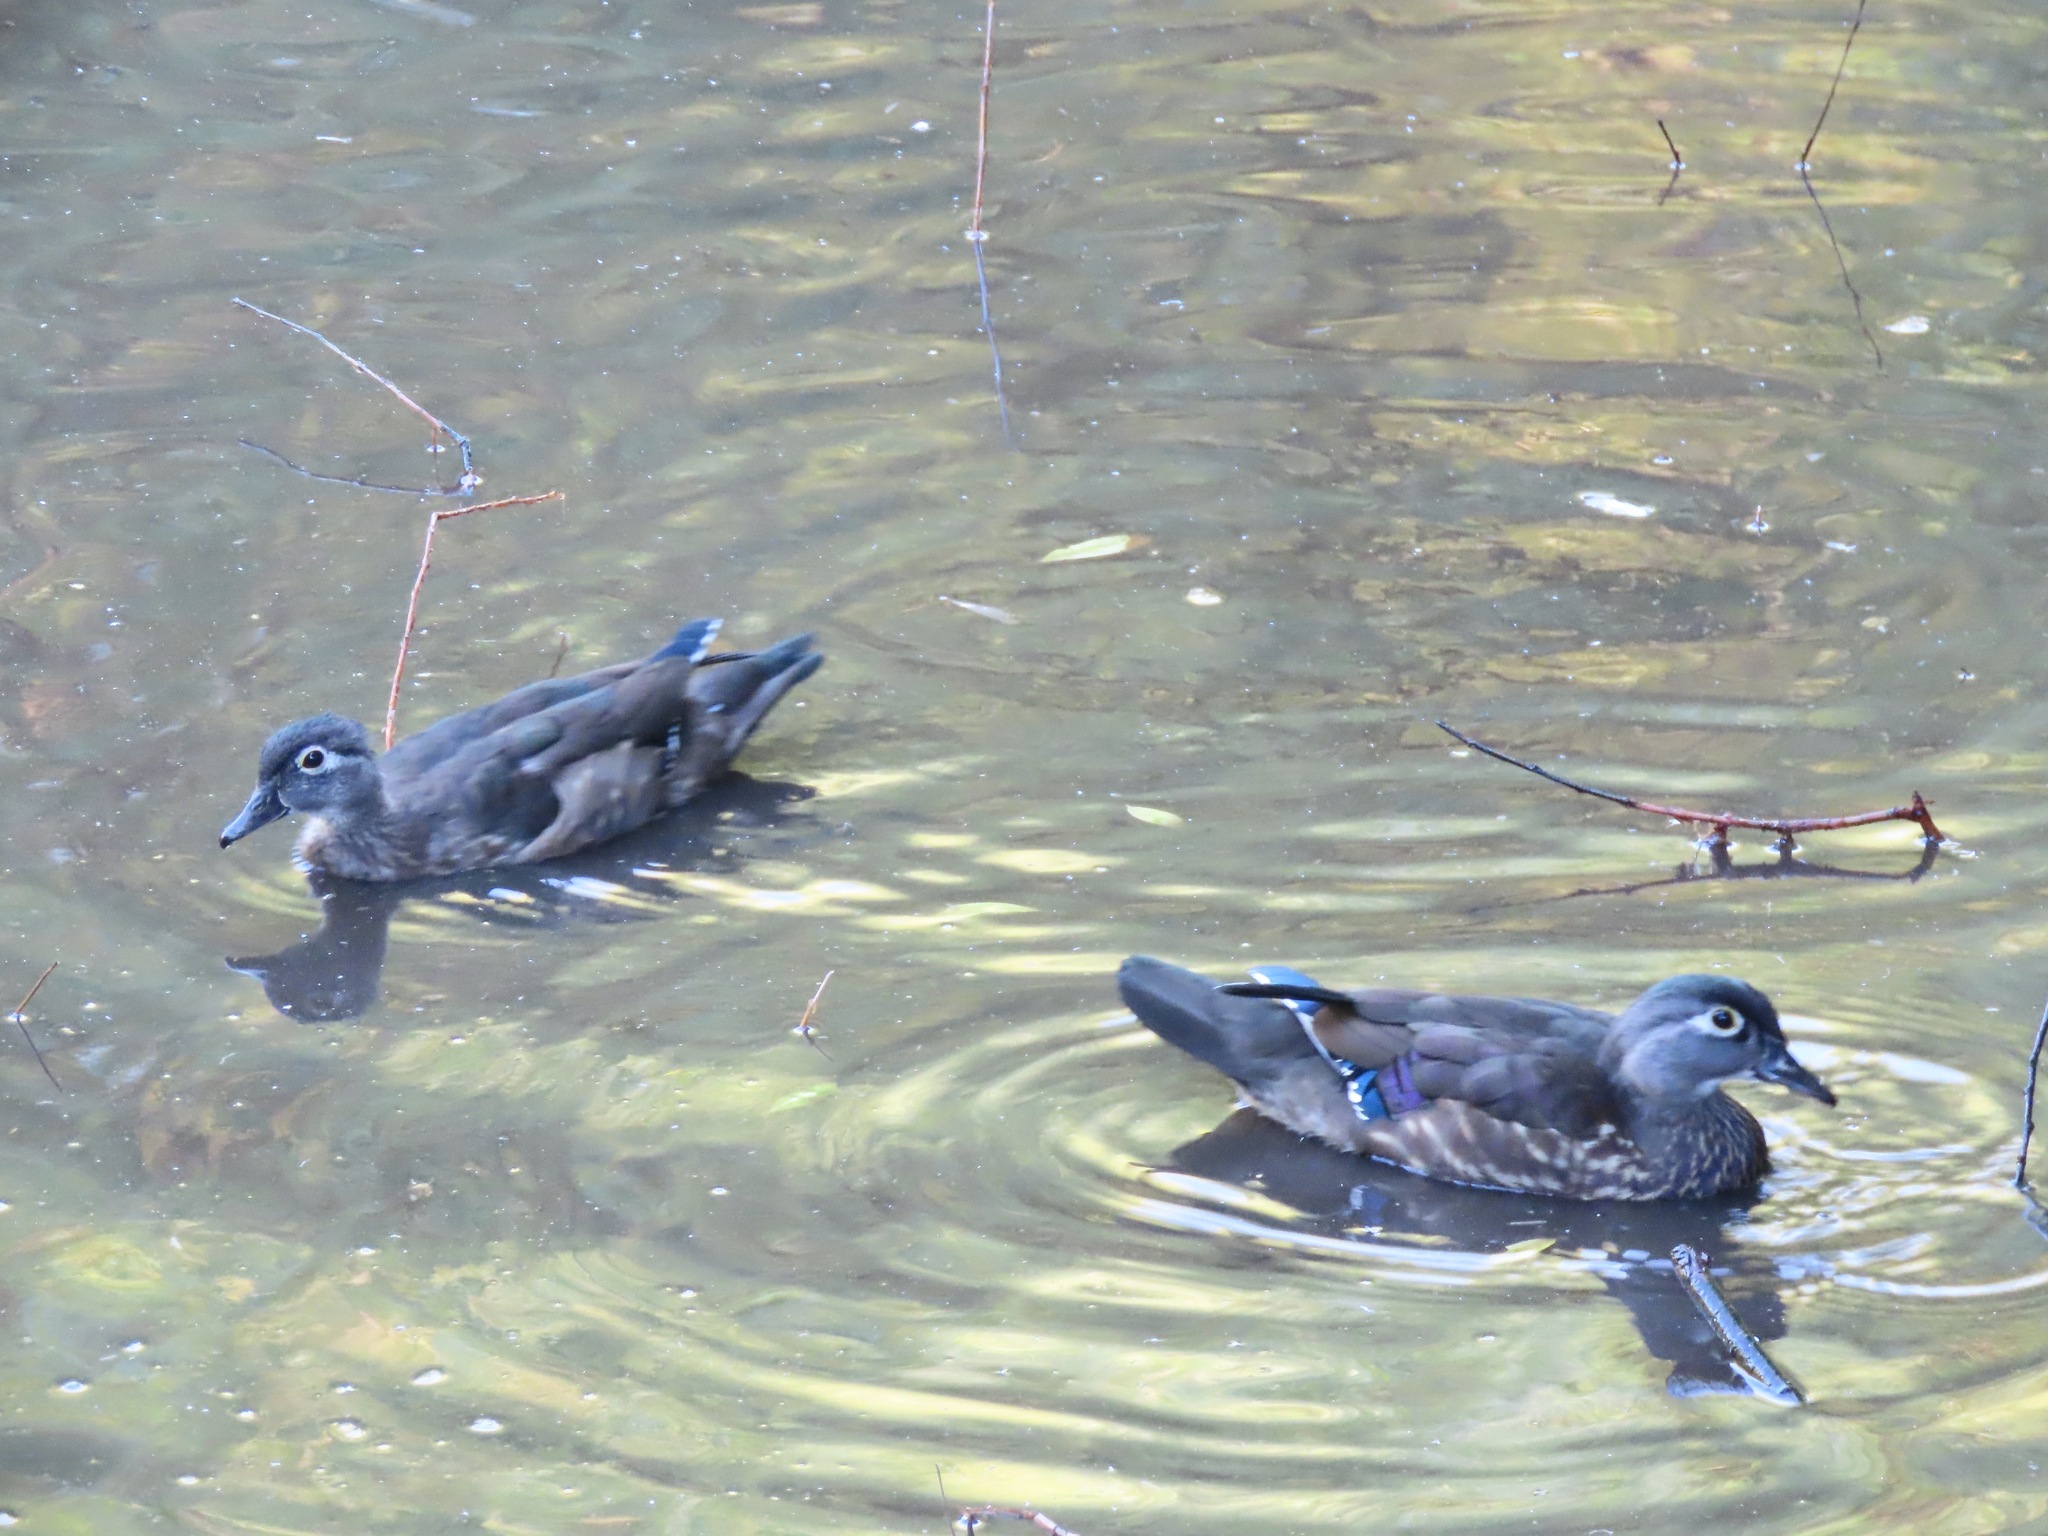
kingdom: Animalia
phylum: Chordata
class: Aves
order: Anseriformes
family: Anatidae
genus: Aix
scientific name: Aix sponsa
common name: Wood duck
